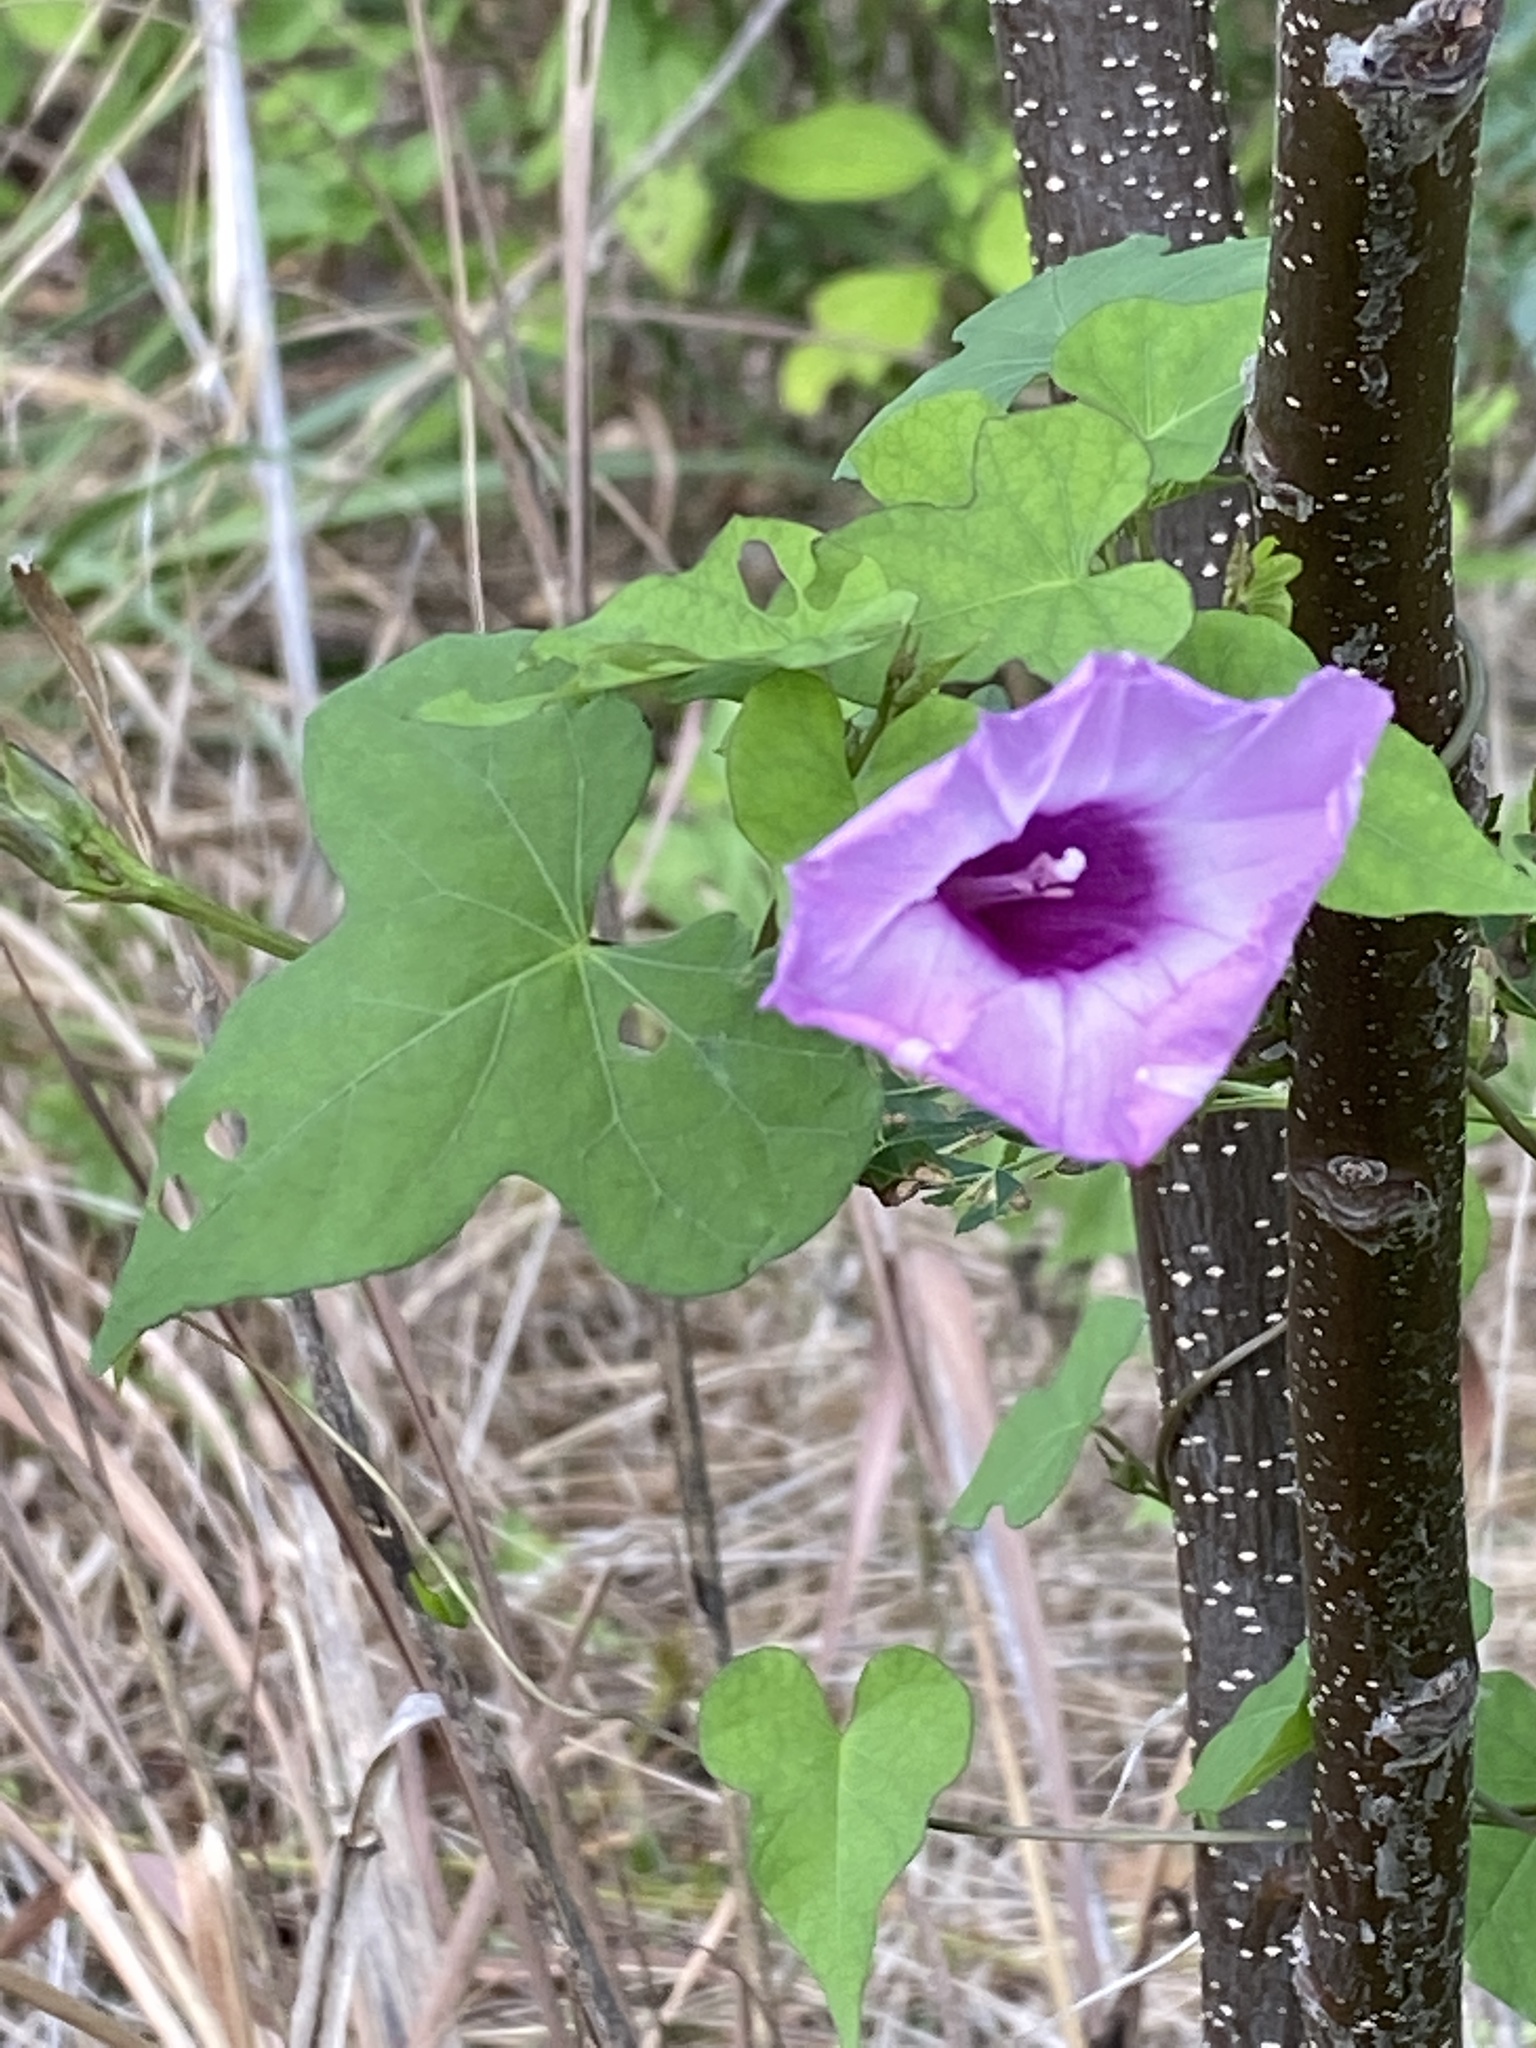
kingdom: Plantae
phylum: Tracheophyta
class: Magnoliopsida
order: Solanales
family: Convolvulaceae
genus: Ipomoea
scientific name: Ipomoea cordatotriloba
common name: Cotton morning glory
